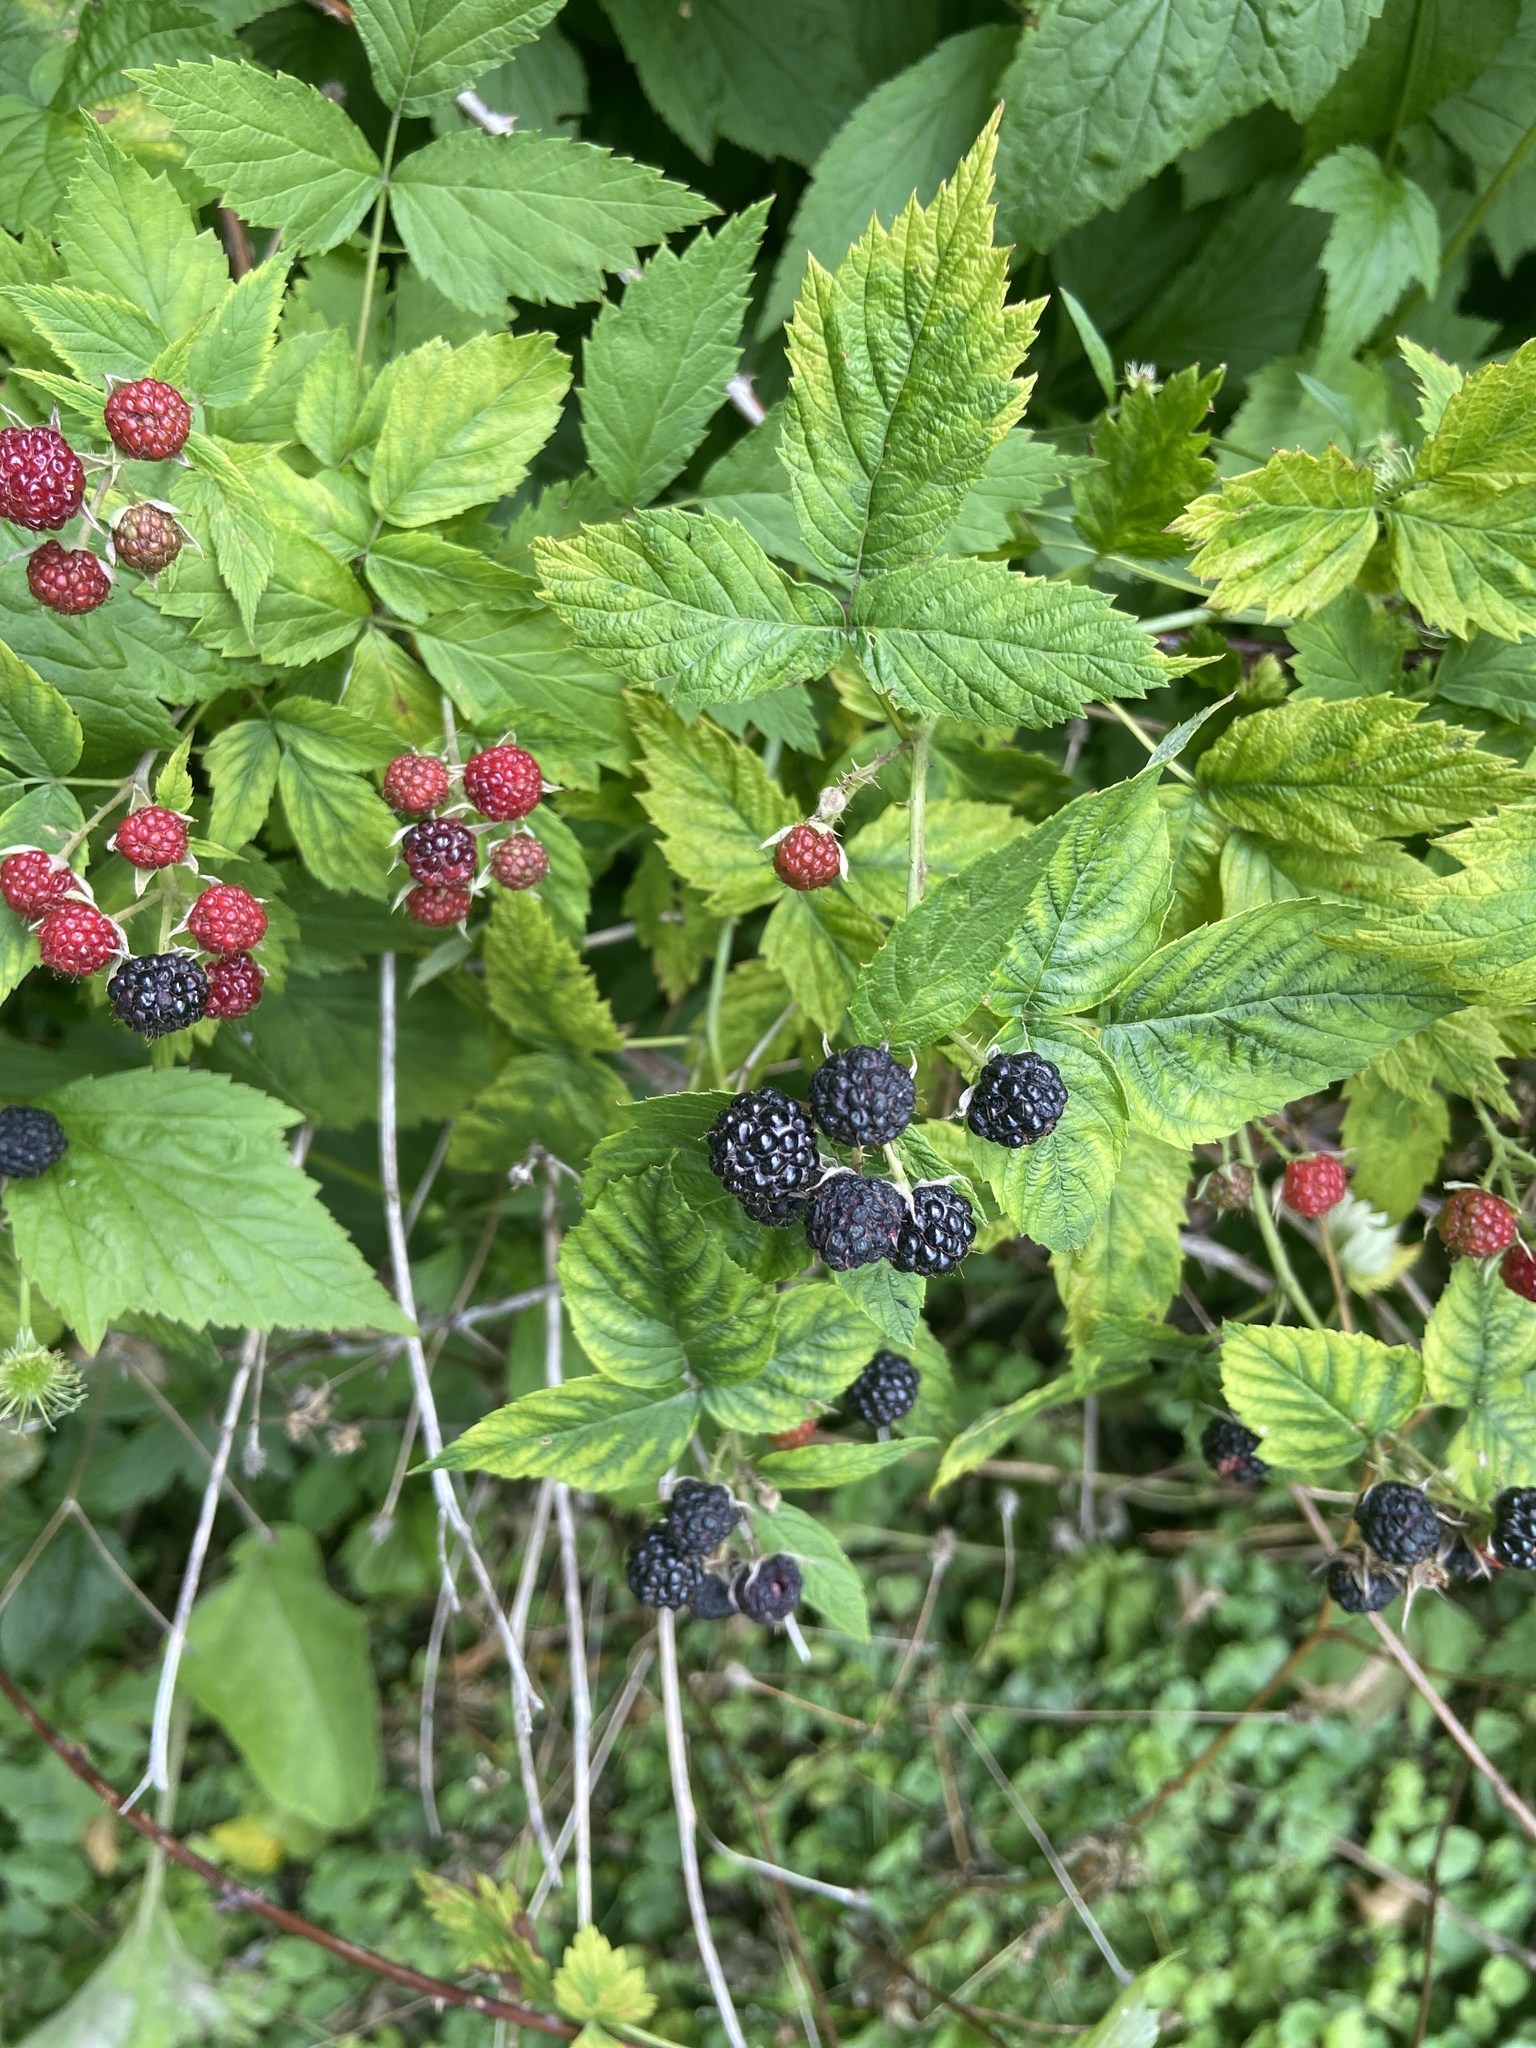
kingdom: Plantae
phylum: Tracheophyta
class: Magnoliopsida
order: Rosales
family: Rosaceae
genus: Rubus
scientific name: Rubus occidentalis
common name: Black raspberry
